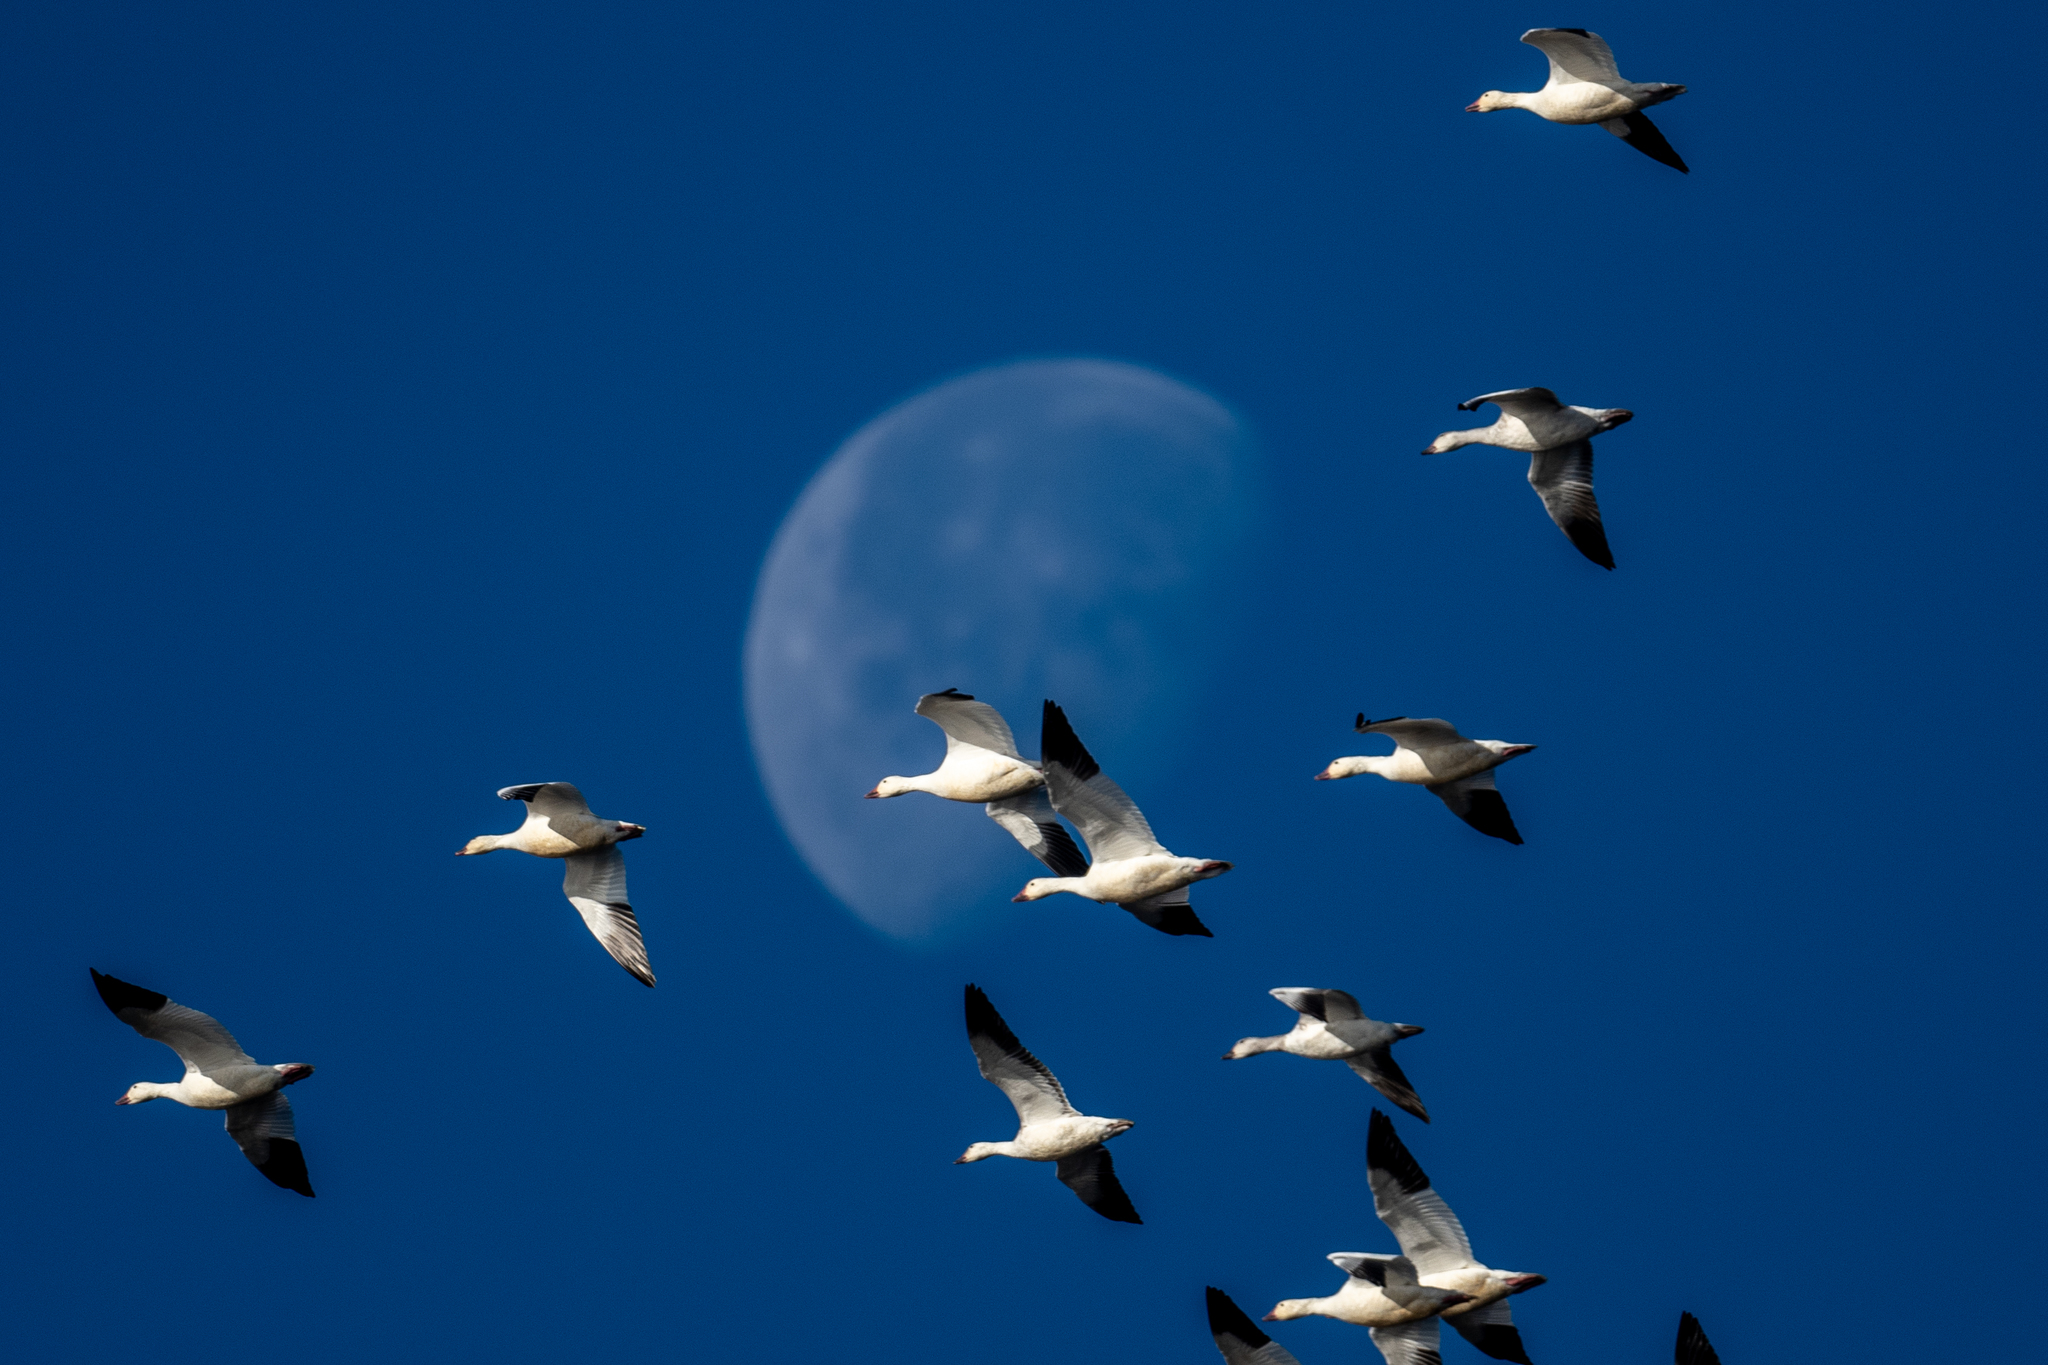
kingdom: Animalia
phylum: Chordata
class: Aves
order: Anseriformes
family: Anatidae
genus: Anser
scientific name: Anser caerulescens
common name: Snow goose
